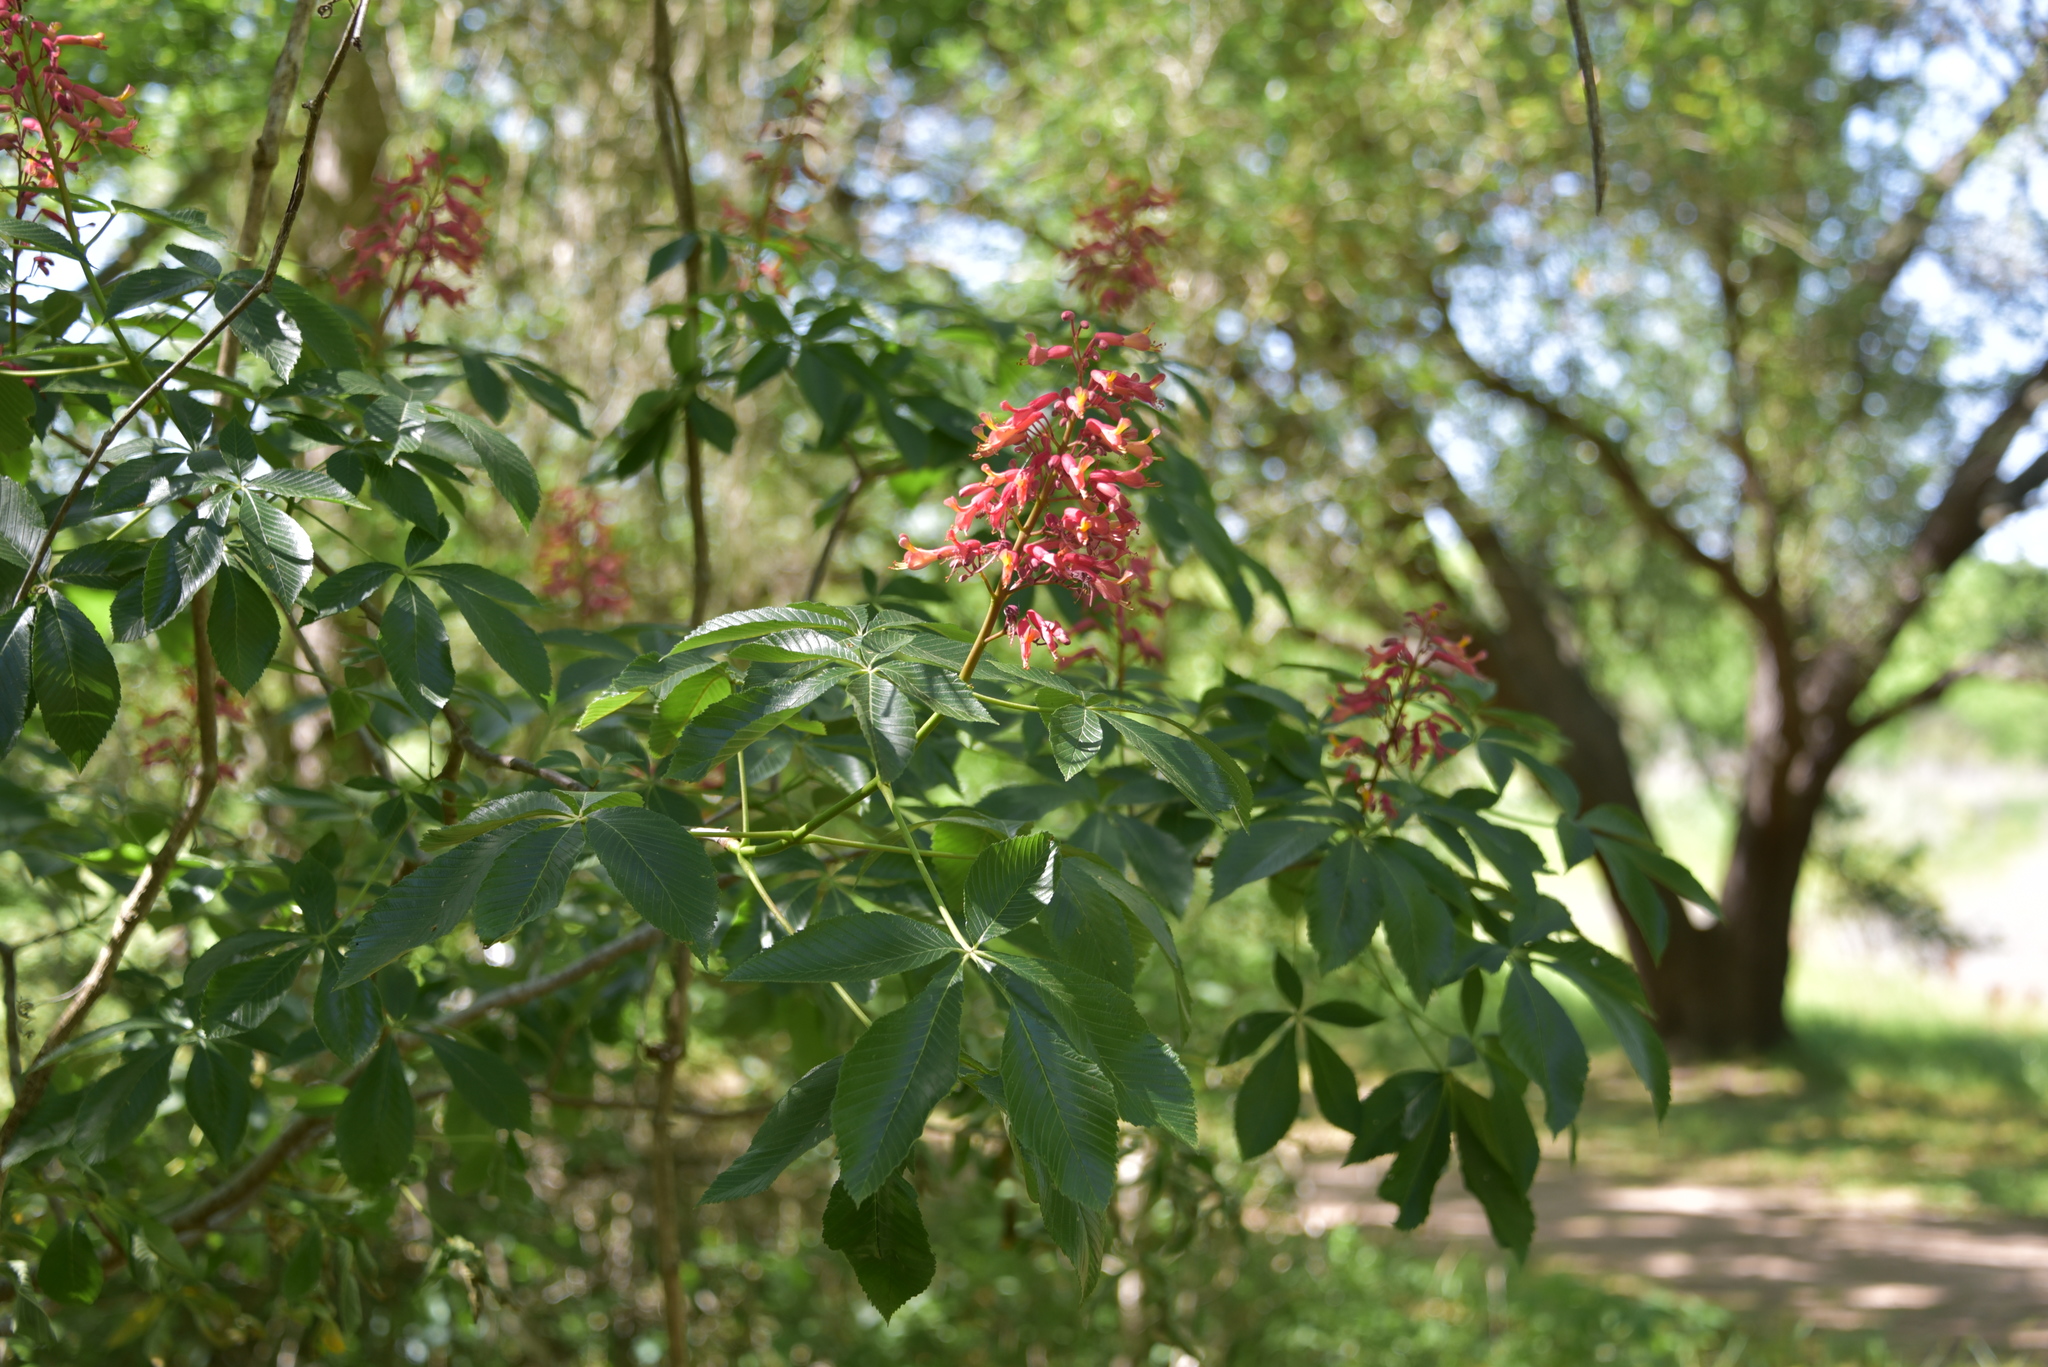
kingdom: Plantae
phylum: Tracheophyta
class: Magnoliopsida
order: Sapindales
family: Sapindaceae
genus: Aesculus
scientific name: Aesculus pavia
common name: Red buckeye
